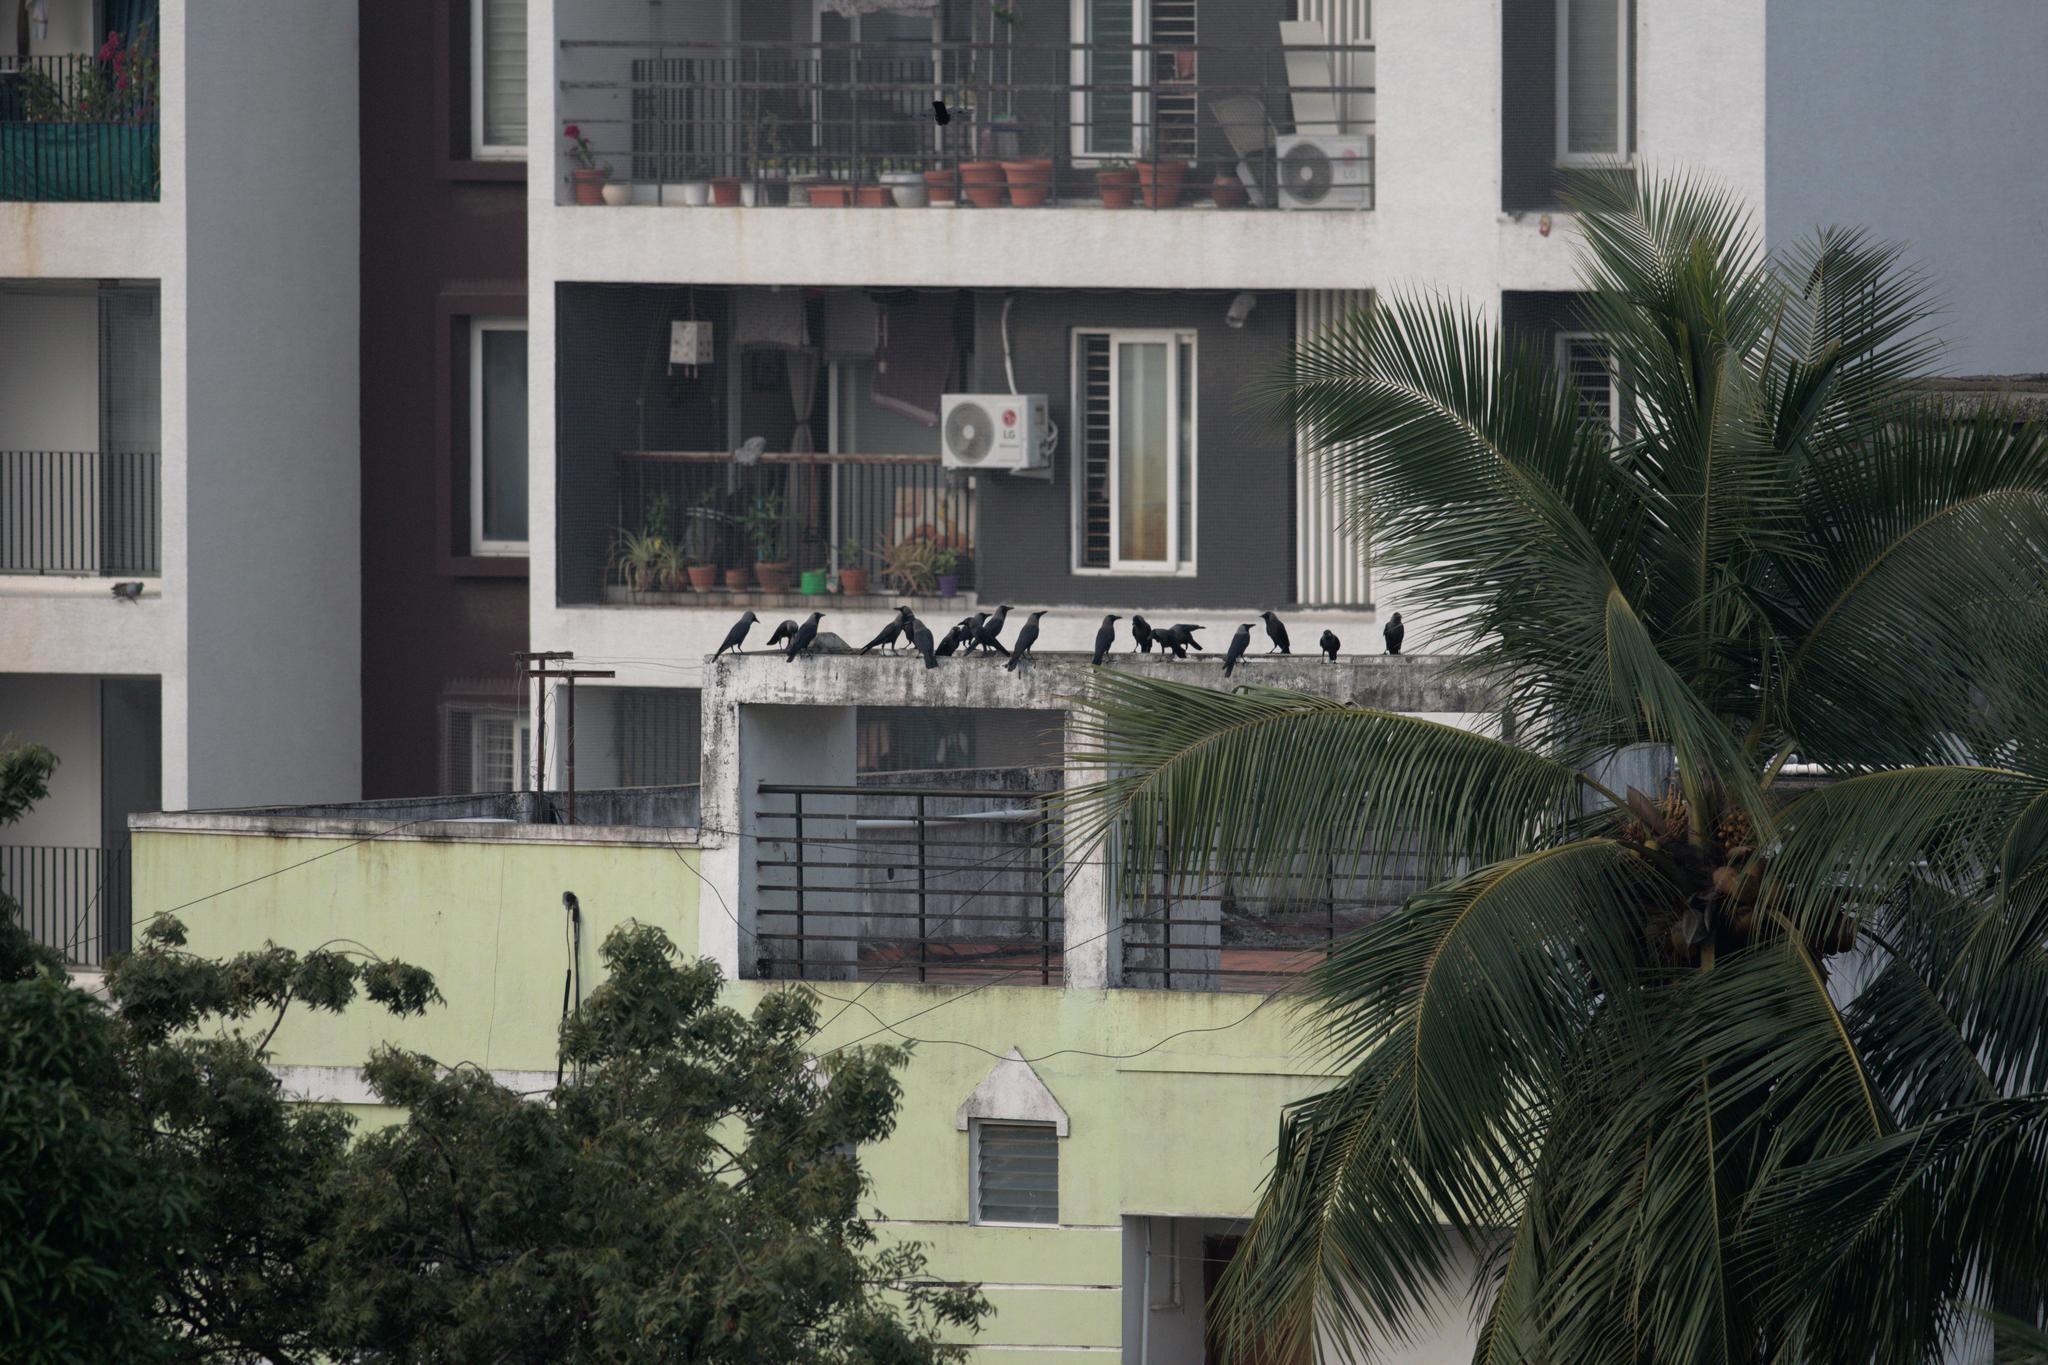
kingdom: Animalia
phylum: Chordata
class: Aves
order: Passeriformes
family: Corvidae
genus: Corvus
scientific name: Corvus splendens
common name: House crow
